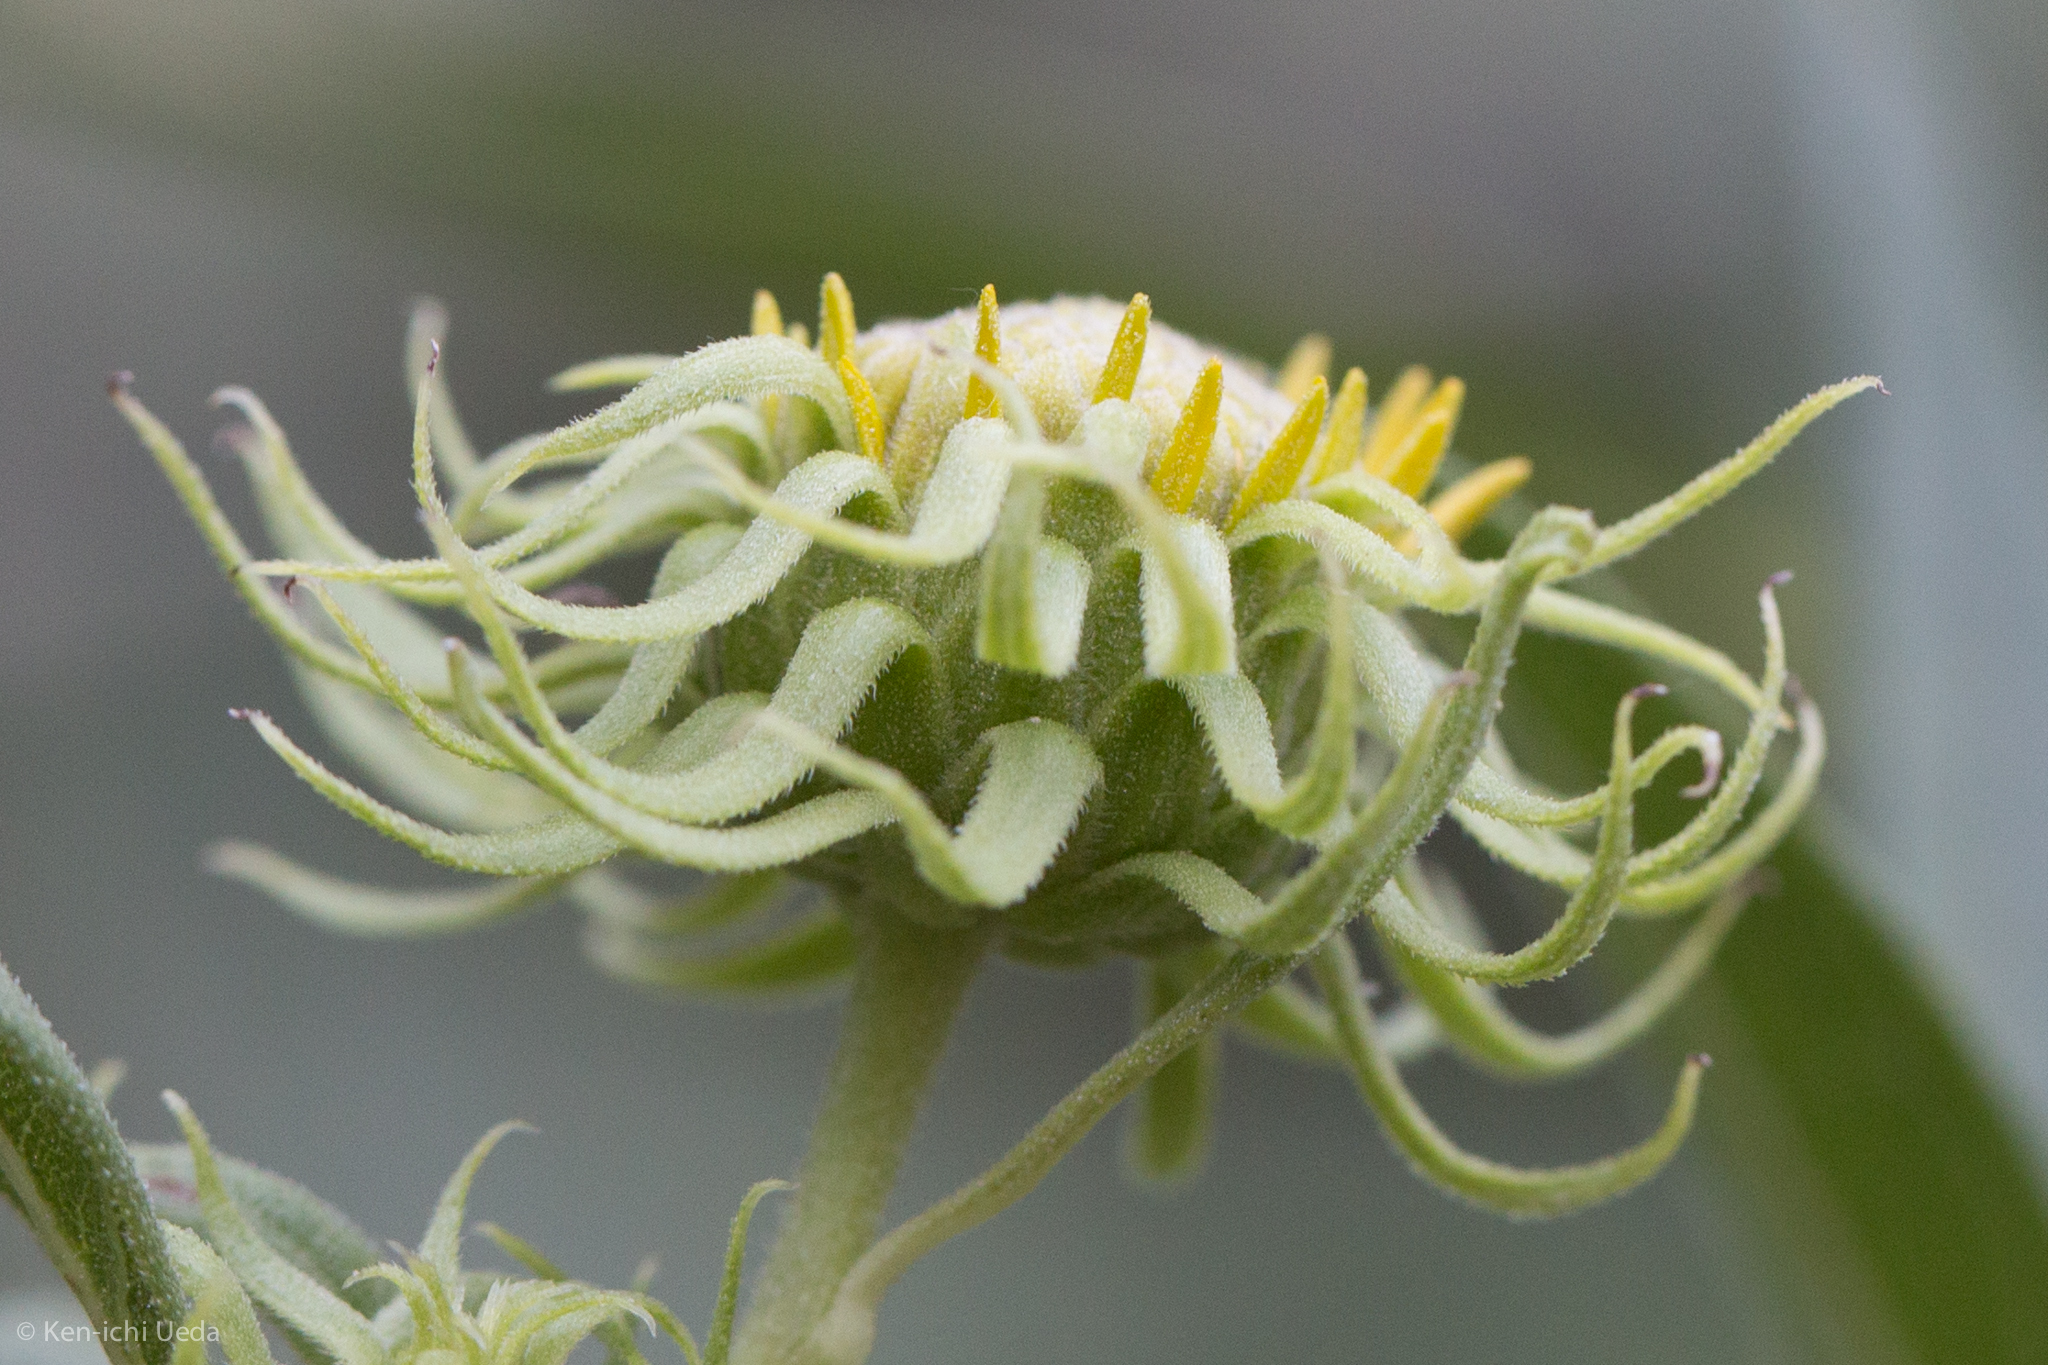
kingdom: Plantae
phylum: Tracheophyta
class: Magnoliopsida
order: Asterales
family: Asteraceae
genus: Helianthus
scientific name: Helianthus californicus
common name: California sunflower
